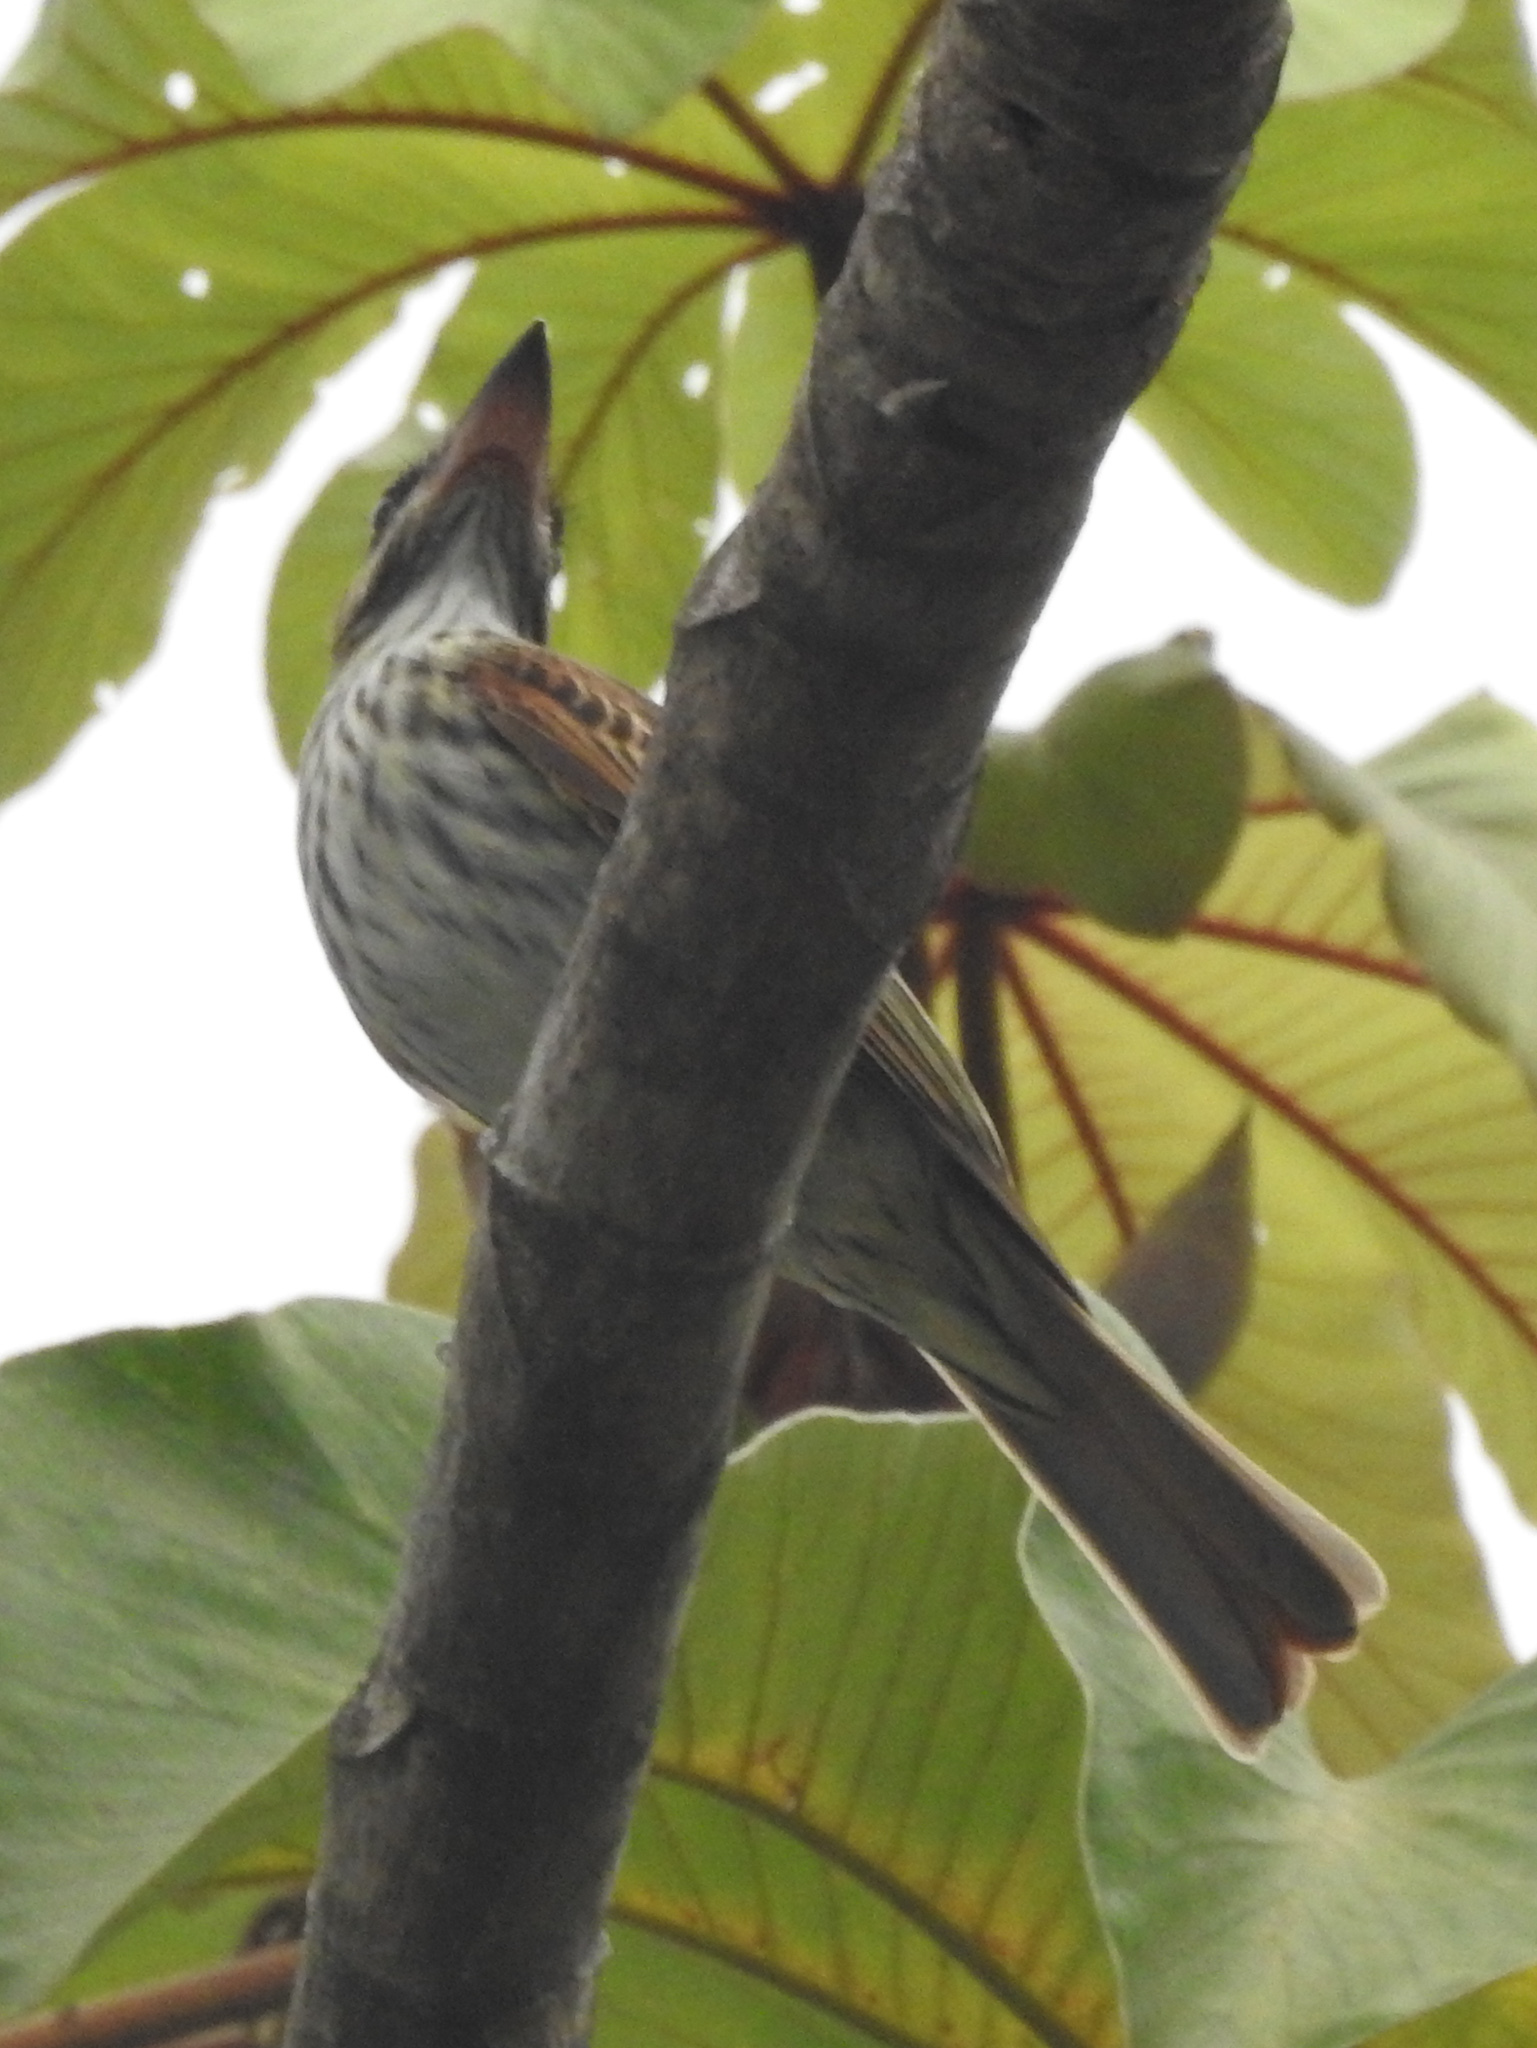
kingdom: Animalia
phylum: Chordata
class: Aves
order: Passeriformes
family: Tyrannidae
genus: Myiodynastes
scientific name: Myiodynastes maculatus
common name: Streaked flycatcher
